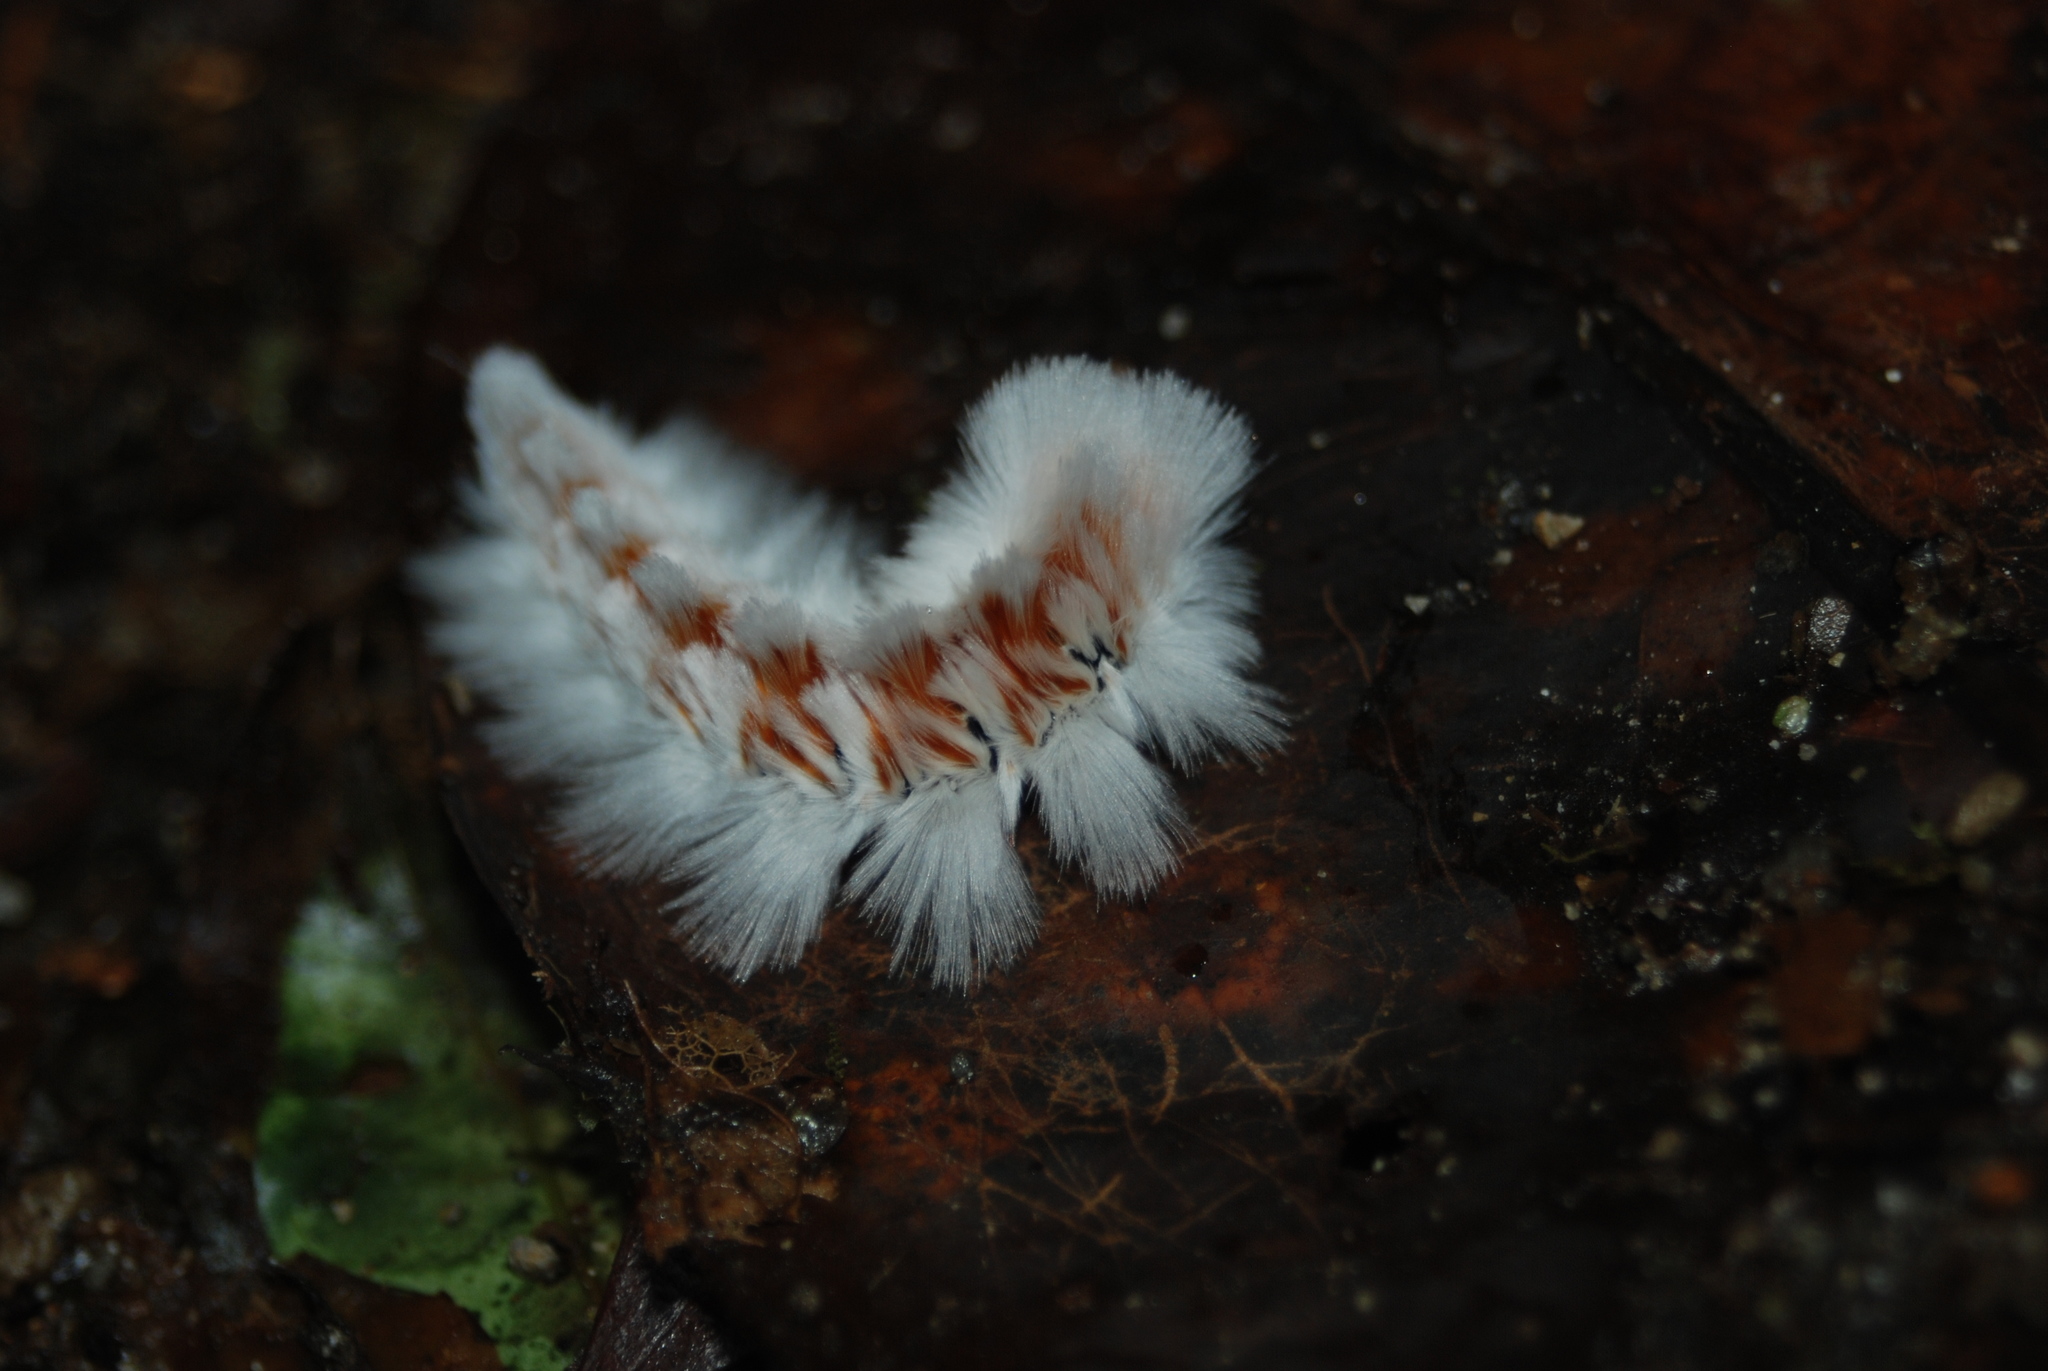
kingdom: Animalia
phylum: Arthropoda
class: Insecta
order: Lepidoptera
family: Eupterotidae
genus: Neopreptos
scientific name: Neopreptos marathusa
